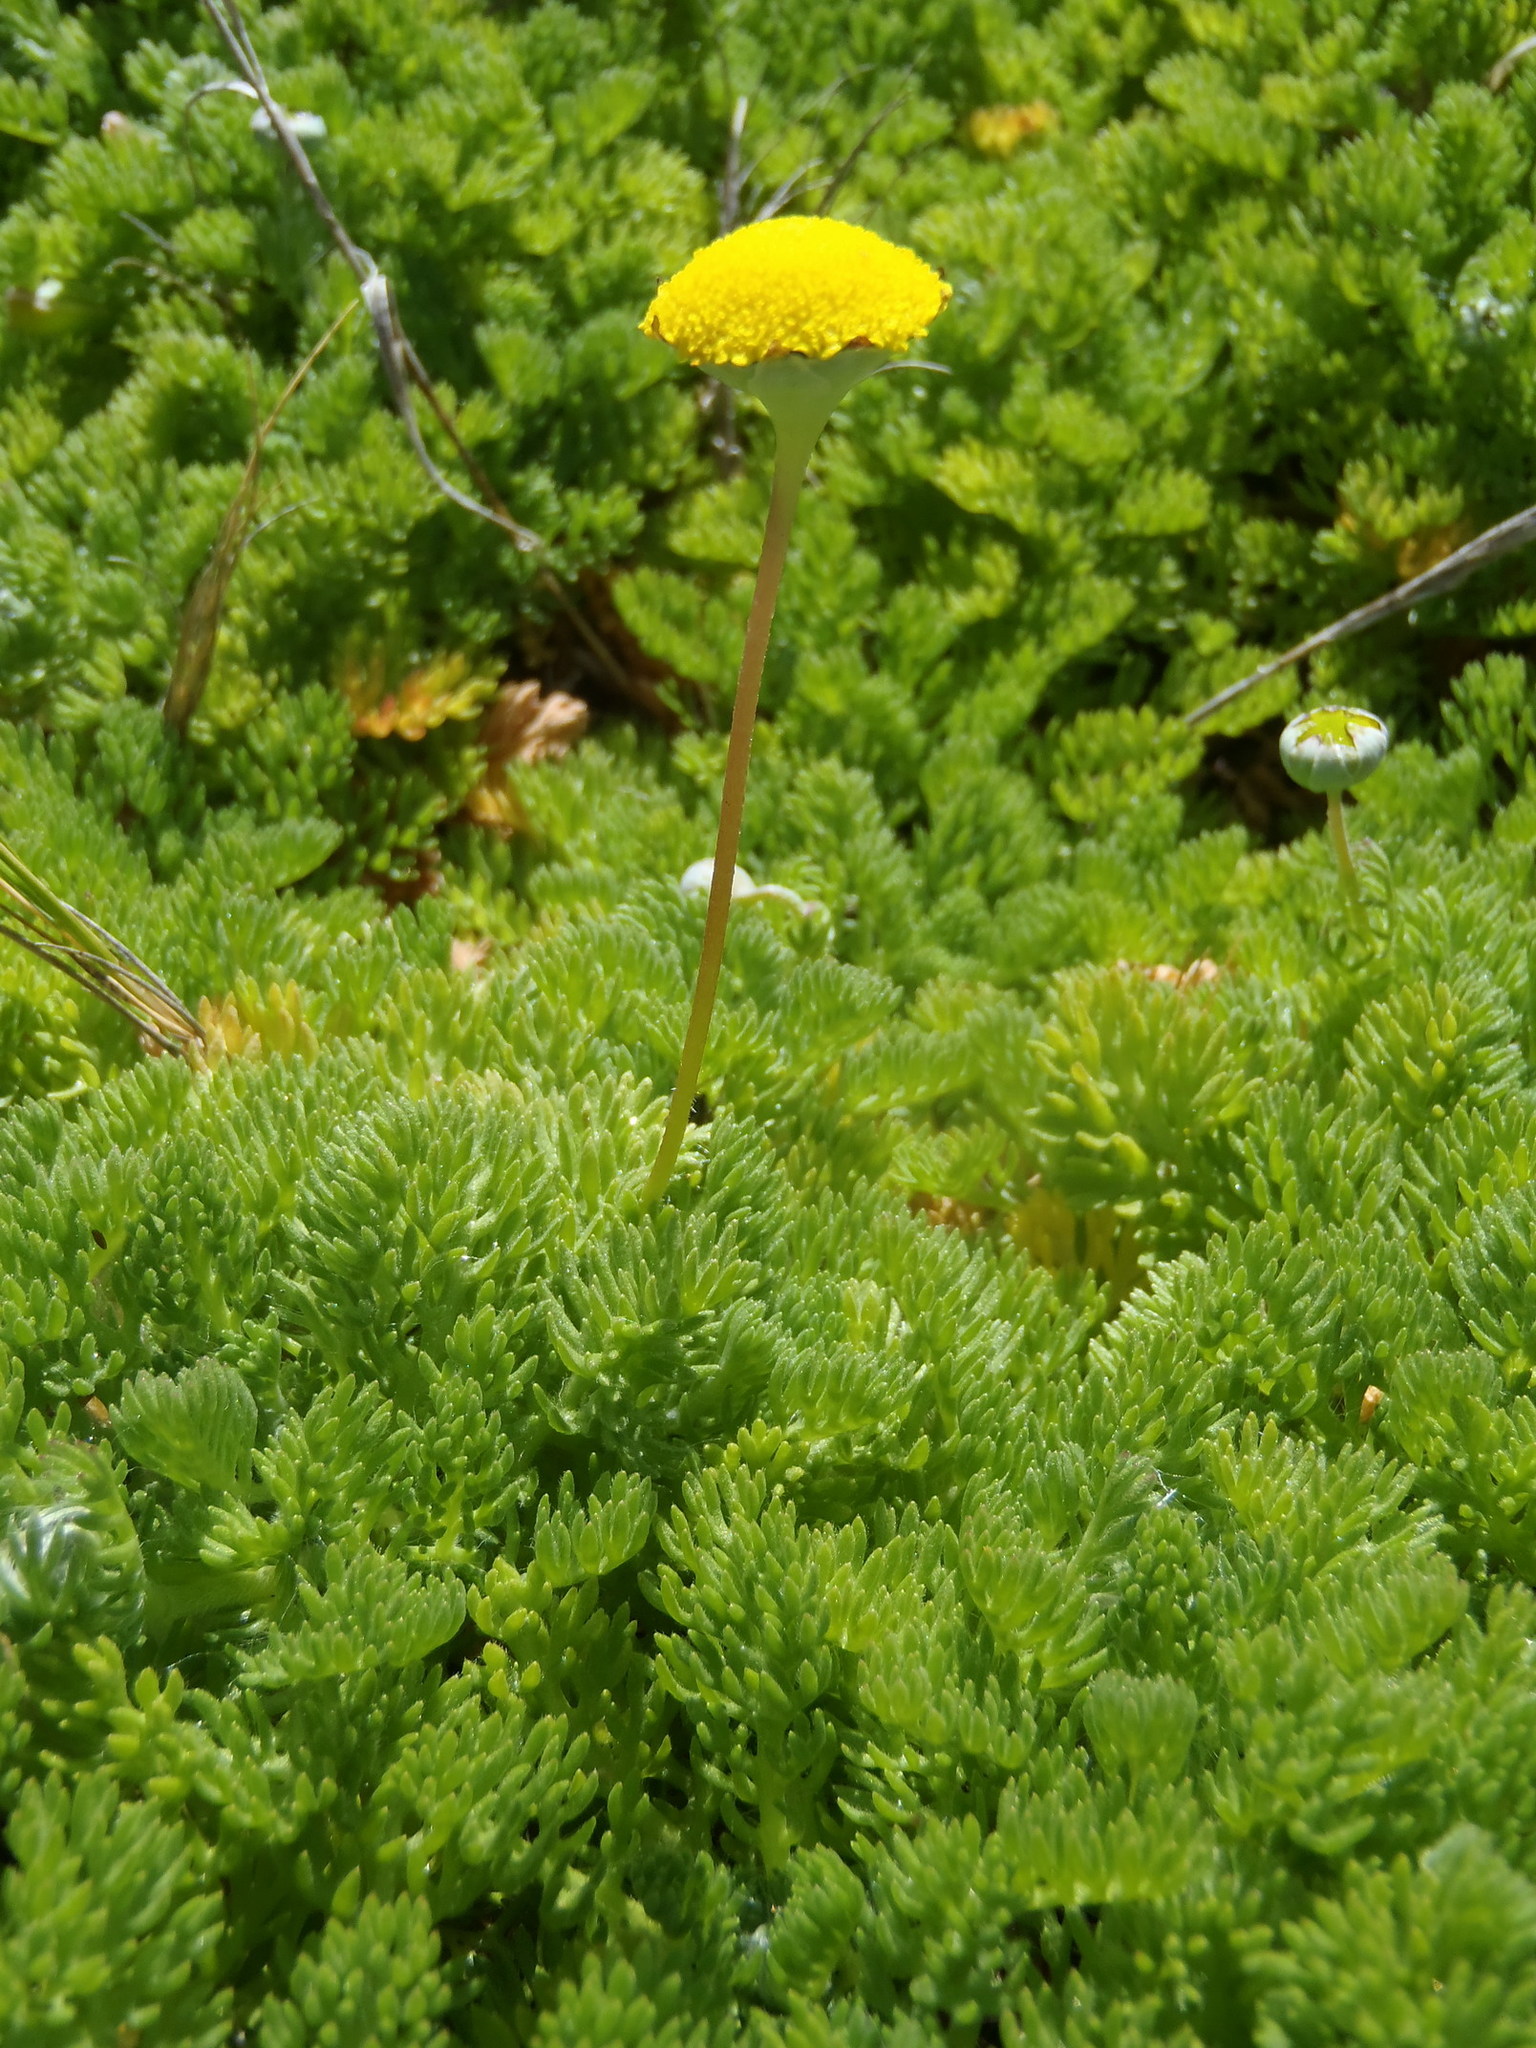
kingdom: Plantae
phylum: Tracheophyta
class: Magnoliopsida
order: Asterales
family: Asteraceae
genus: Cotula
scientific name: Cotula discolor
